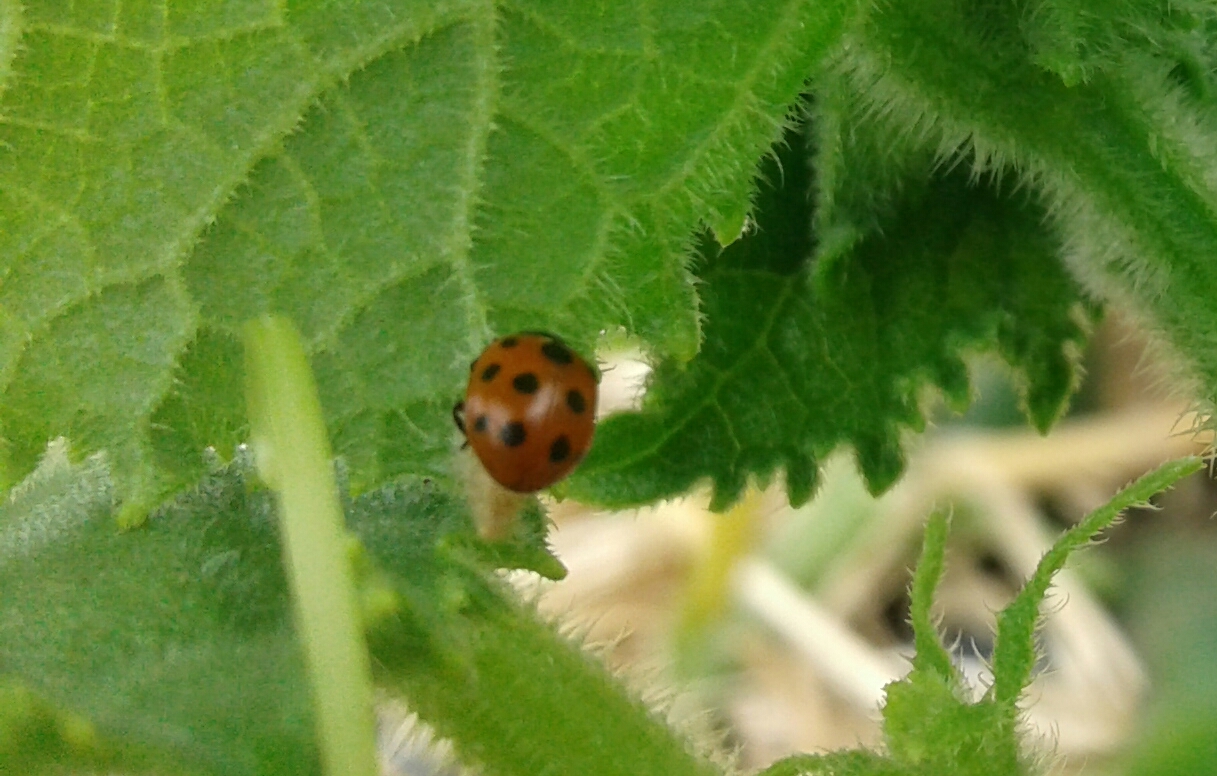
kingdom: Animalia
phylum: Arthropoda
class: Insecta
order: Hymenoptera
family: Braconidae
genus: Dinocampus
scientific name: Dinocampus coccinellae
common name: Braconid wasp
